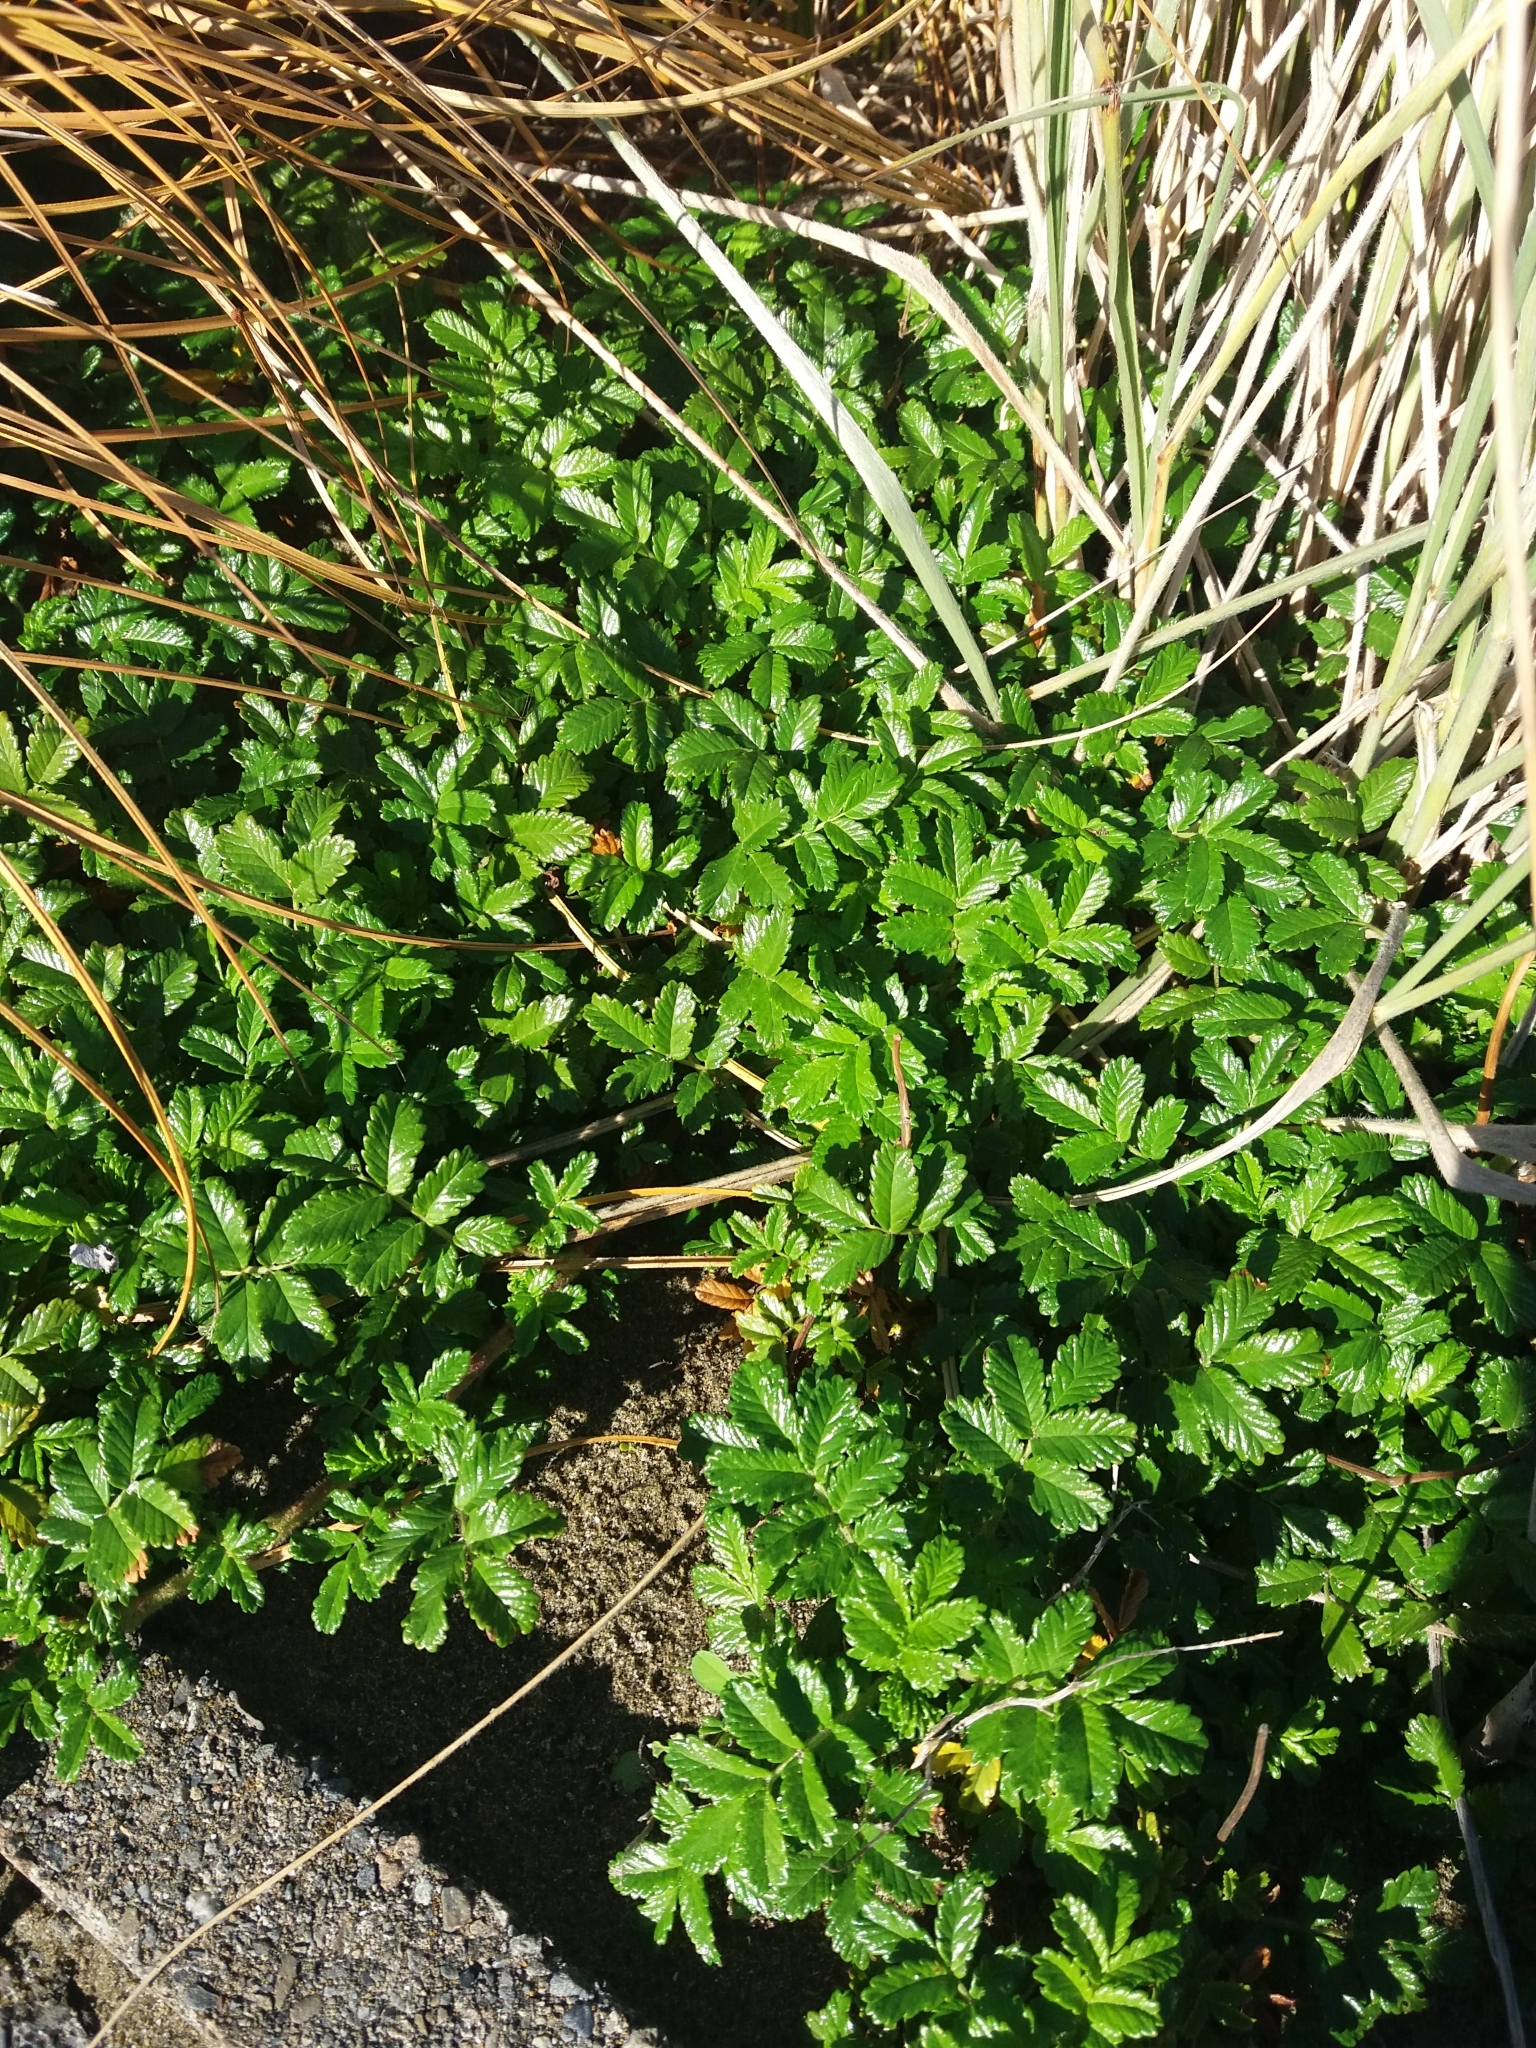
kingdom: Plantae
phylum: Tracheophyta
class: Magnoliopsida
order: Rosales
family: Rosaceae
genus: Acaena
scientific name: Acaena novae-zelandiae
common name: Pirri-pirri-bur
